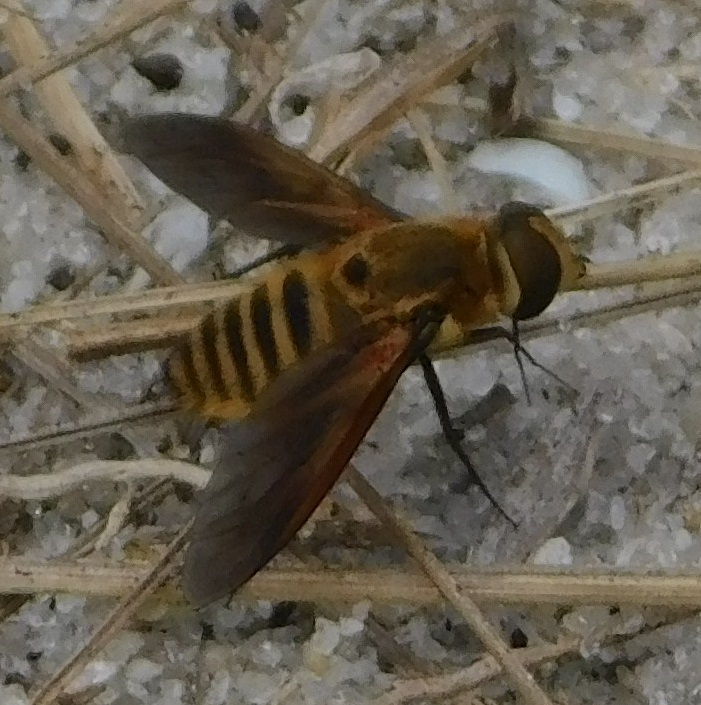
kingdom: Animalia
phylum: Arthropoda
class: Insecta
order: Diptera
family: Bombyliidae
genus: Poecilanthrax
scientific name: Poecilanthrax lucifer
